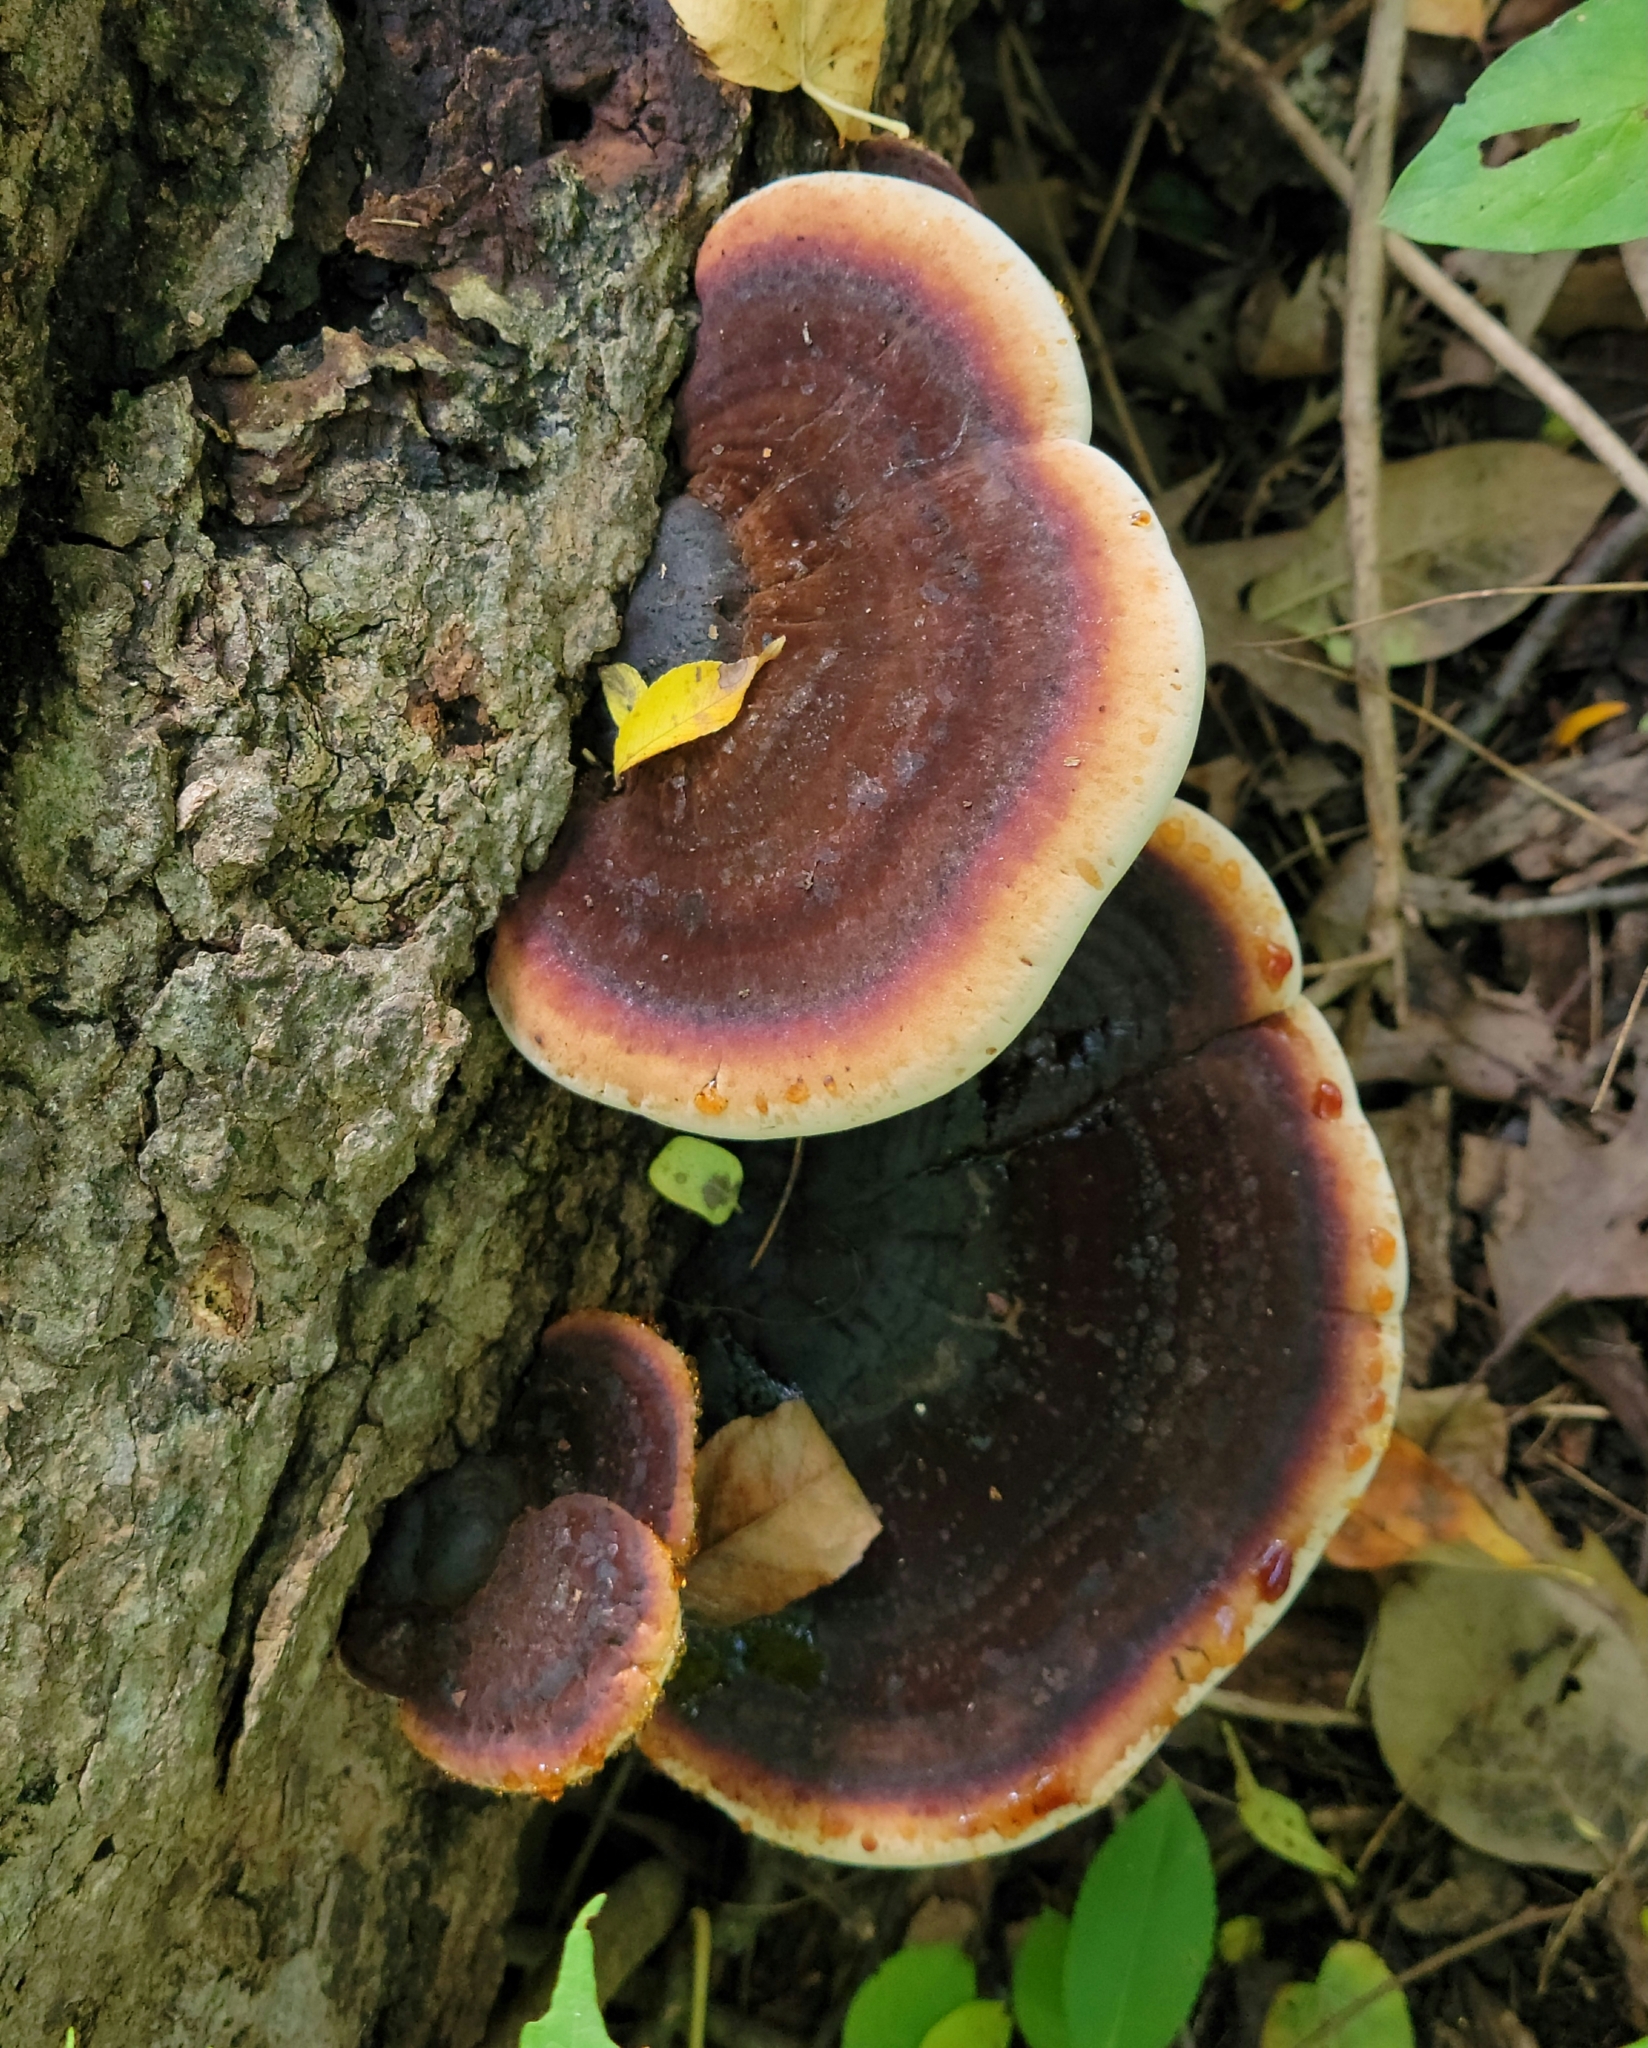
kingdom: Fungi
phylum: Basidiomycota
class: Agaricomycetes
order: Polyporales
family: Ischnodermataceae
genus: Ischnoderma
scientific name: Ischnoderma resinosum
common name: Resinous polypore
